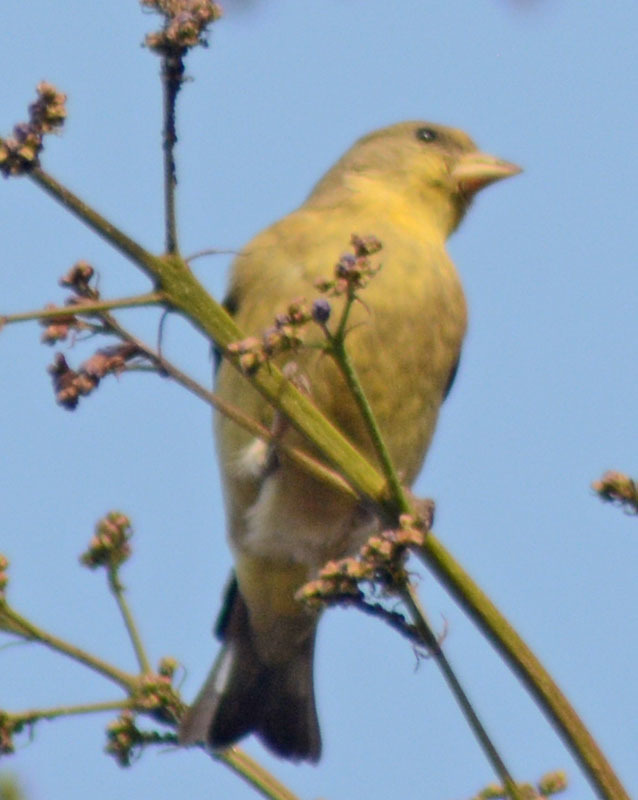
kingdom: Animalia
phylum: Chordata
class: Aves
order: Passeriformes
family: Fringillidae
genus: Spinus
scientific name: Spinus psaltria
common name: Lesser goldfinch
